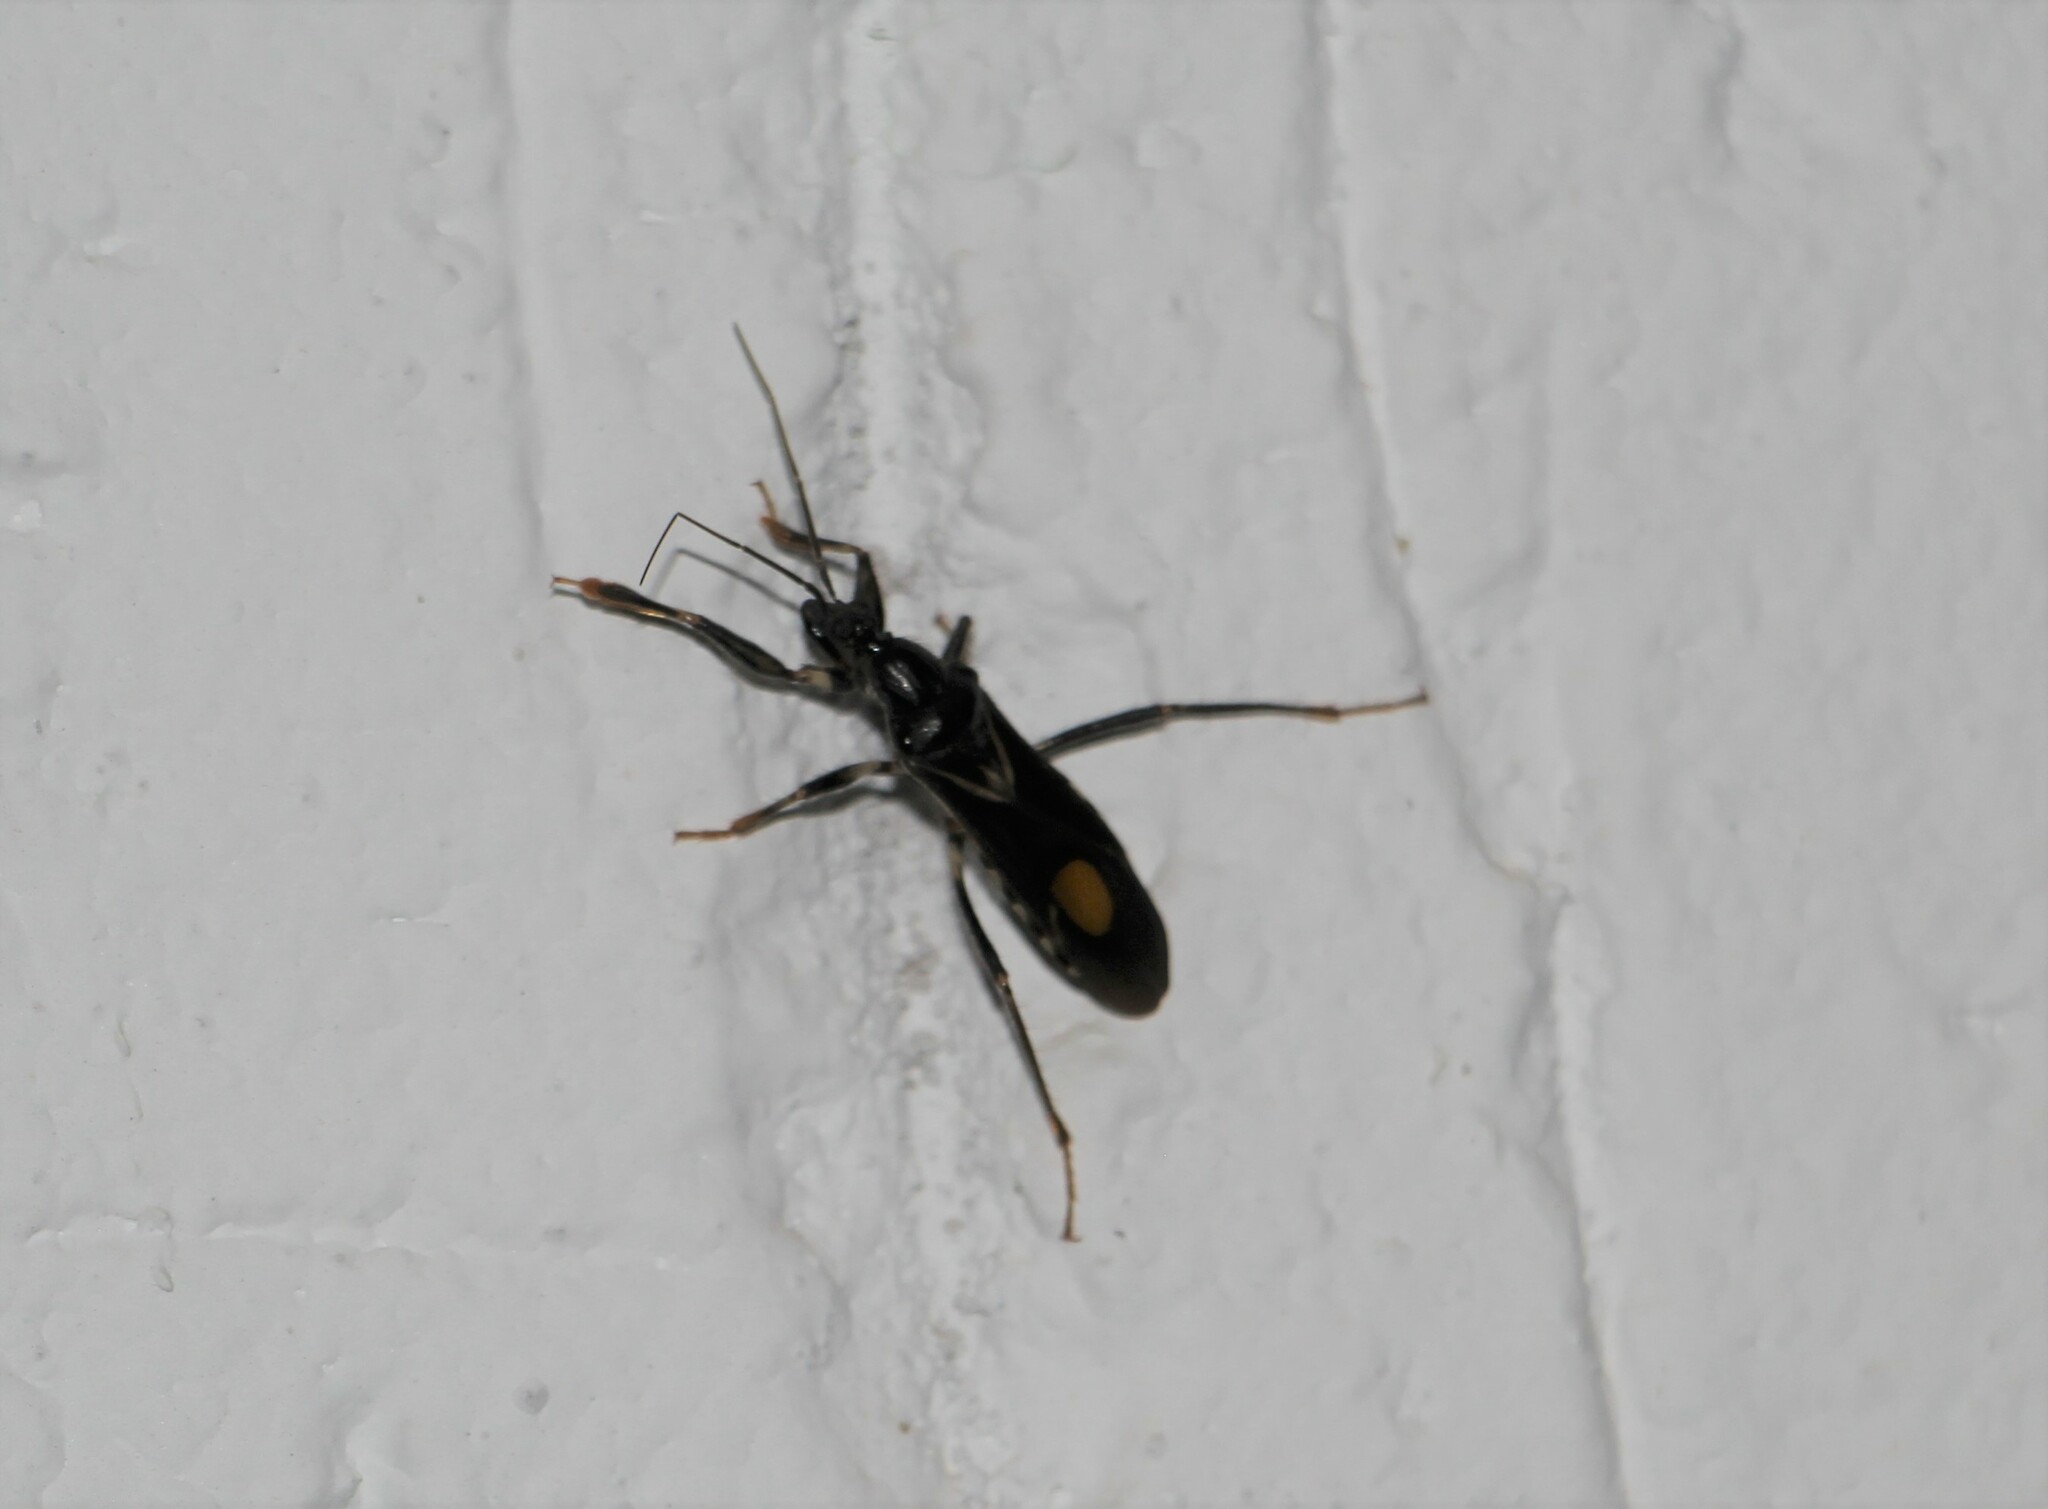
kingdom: Animalia
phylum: Arthropoda
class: Insecta
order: Hemiptera
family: Reduviidae
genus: Rasahus
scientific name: Rasahus hamatus
